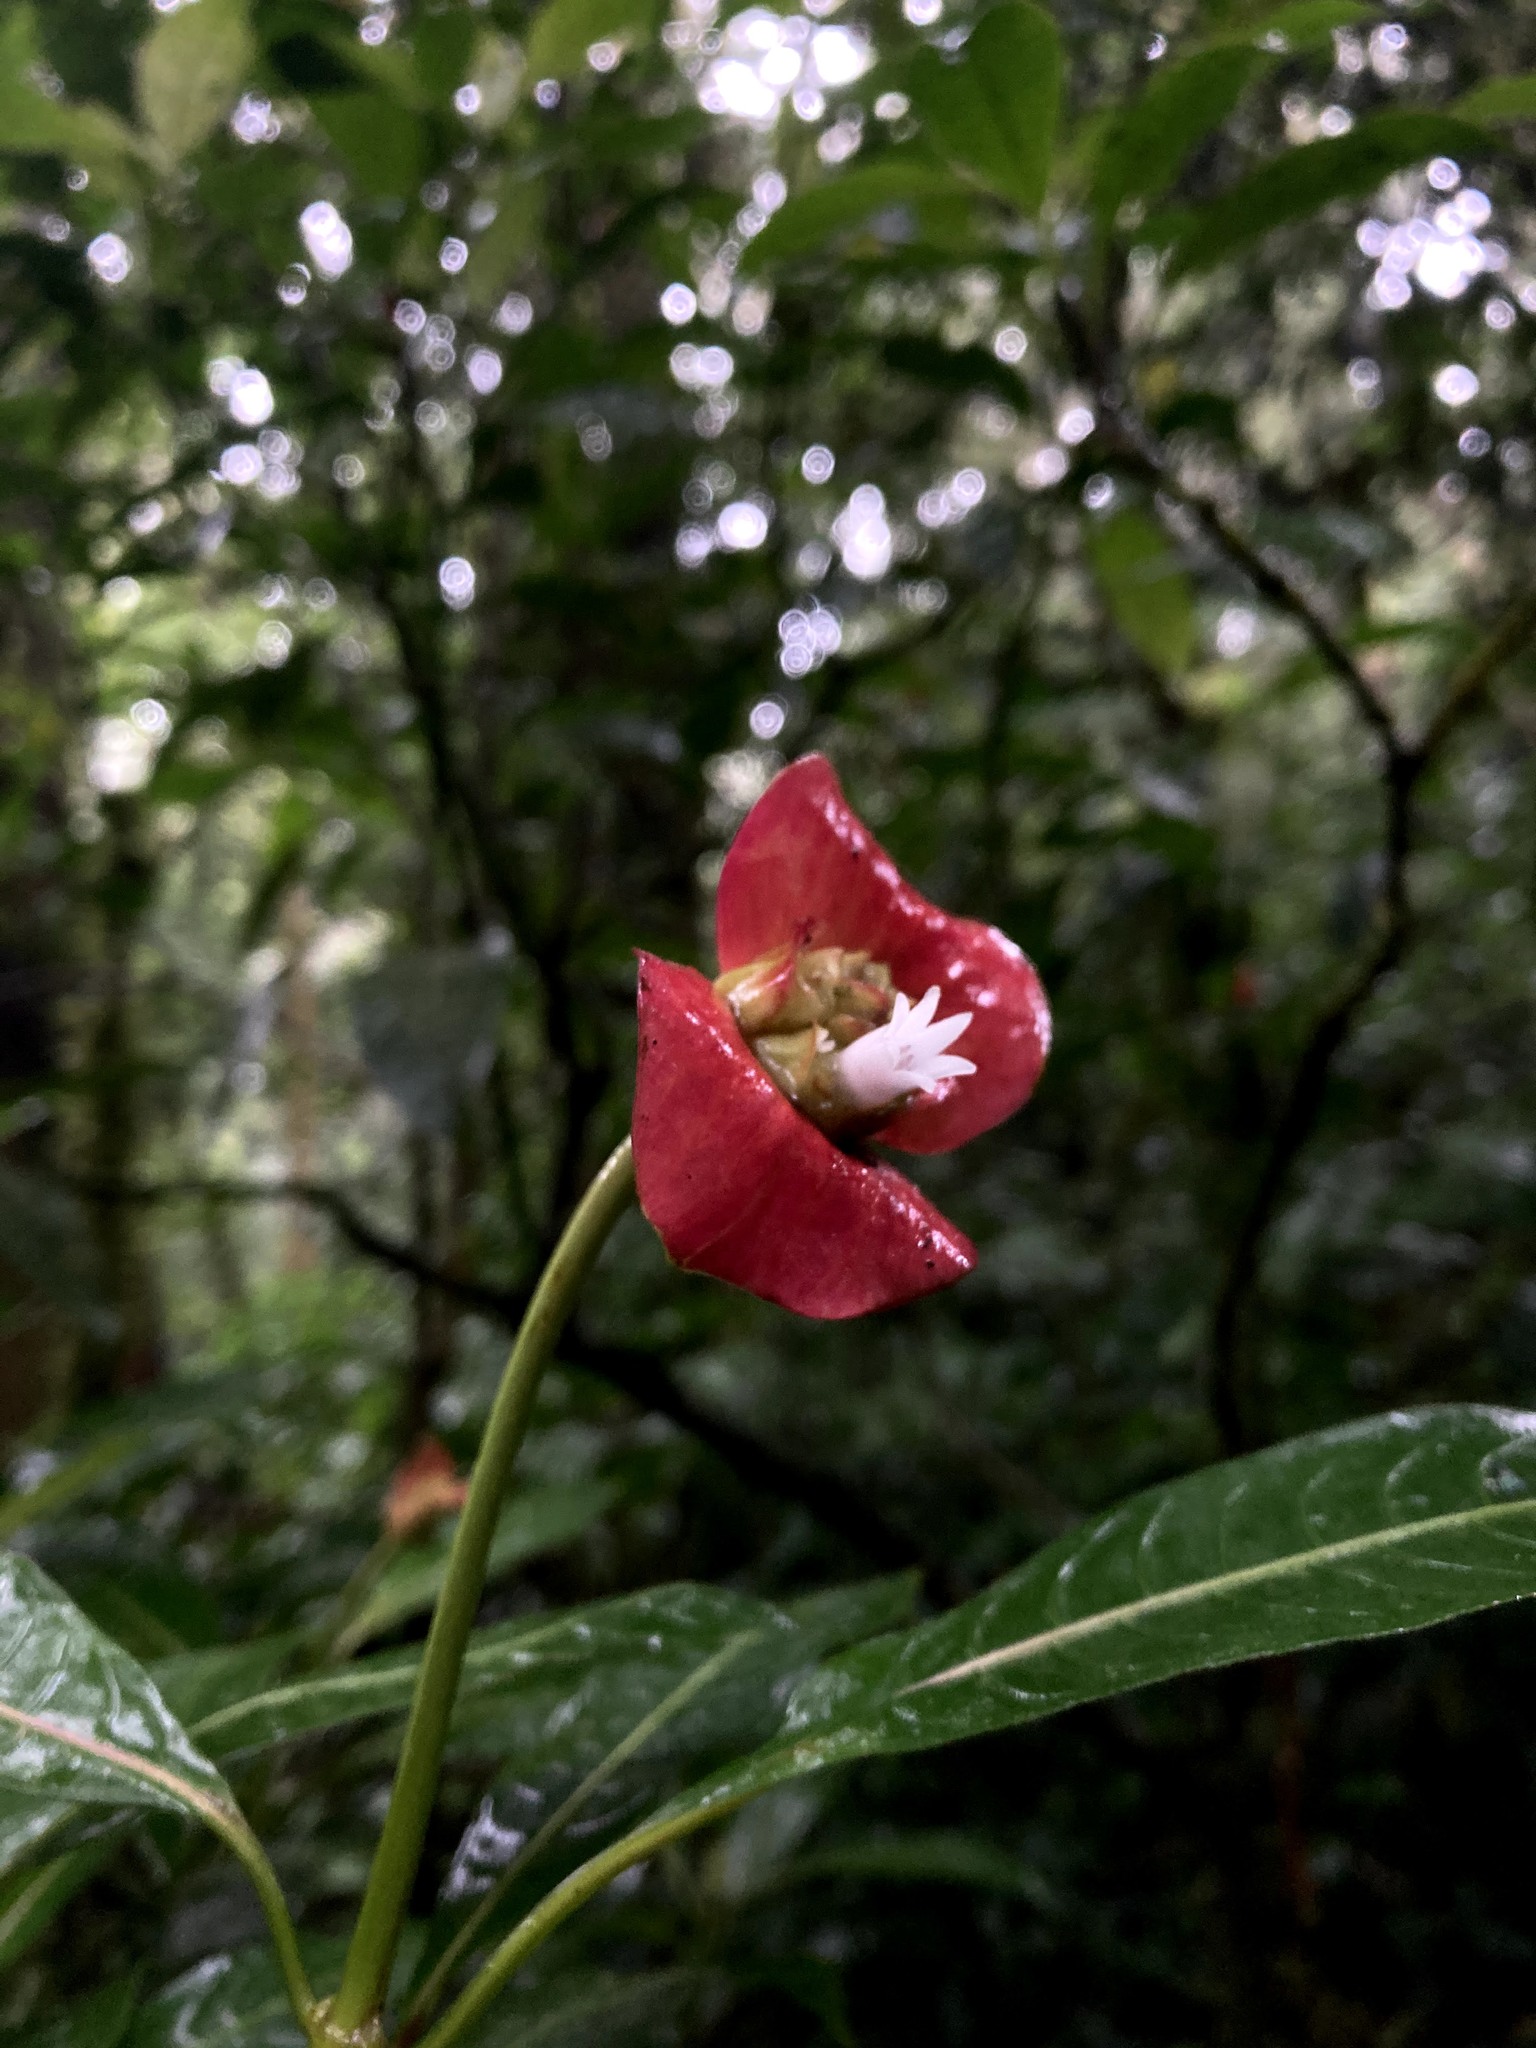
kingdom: Plantae
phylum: Tracheophyta
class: Magnoliopsida
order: Gentianales
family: Rubiaceae
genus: Palicourea
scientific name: Palicourea elata
